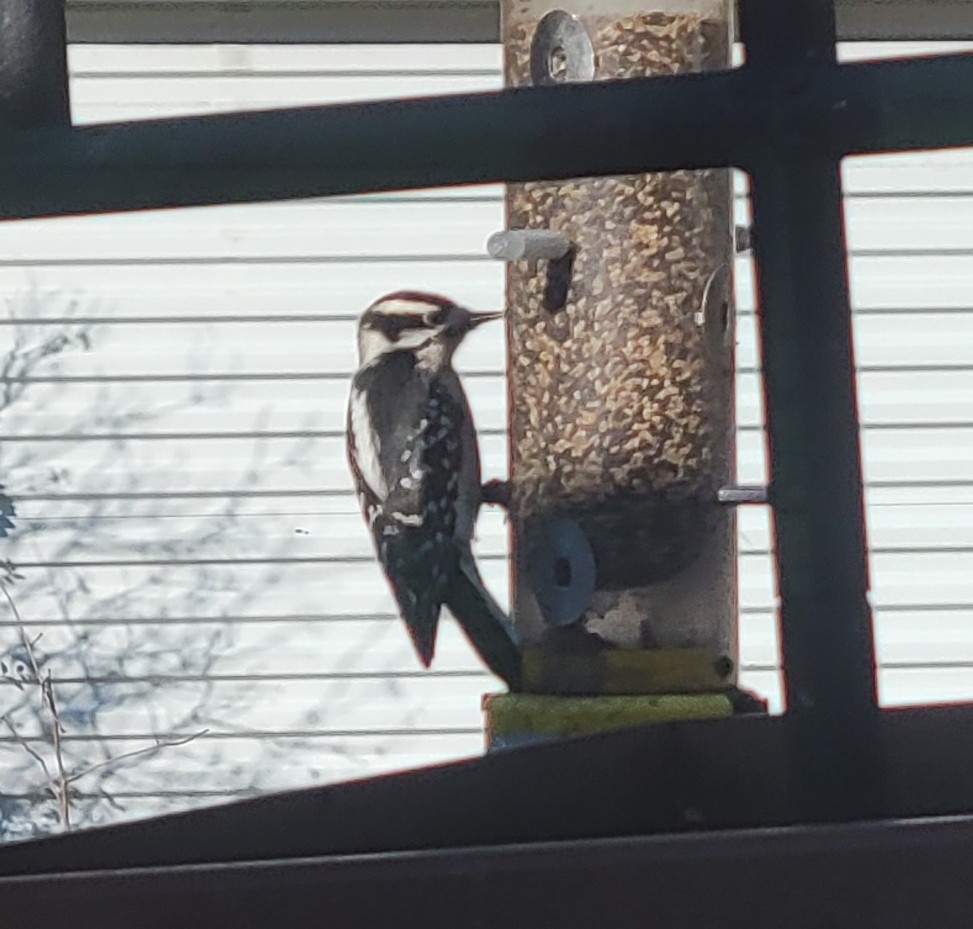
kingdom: Animalia
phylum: Chordata
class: Aves
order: Piciformes
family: Picidae
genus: Dryobates
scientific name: Dryobates pubescens
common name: Downy woodpecker
